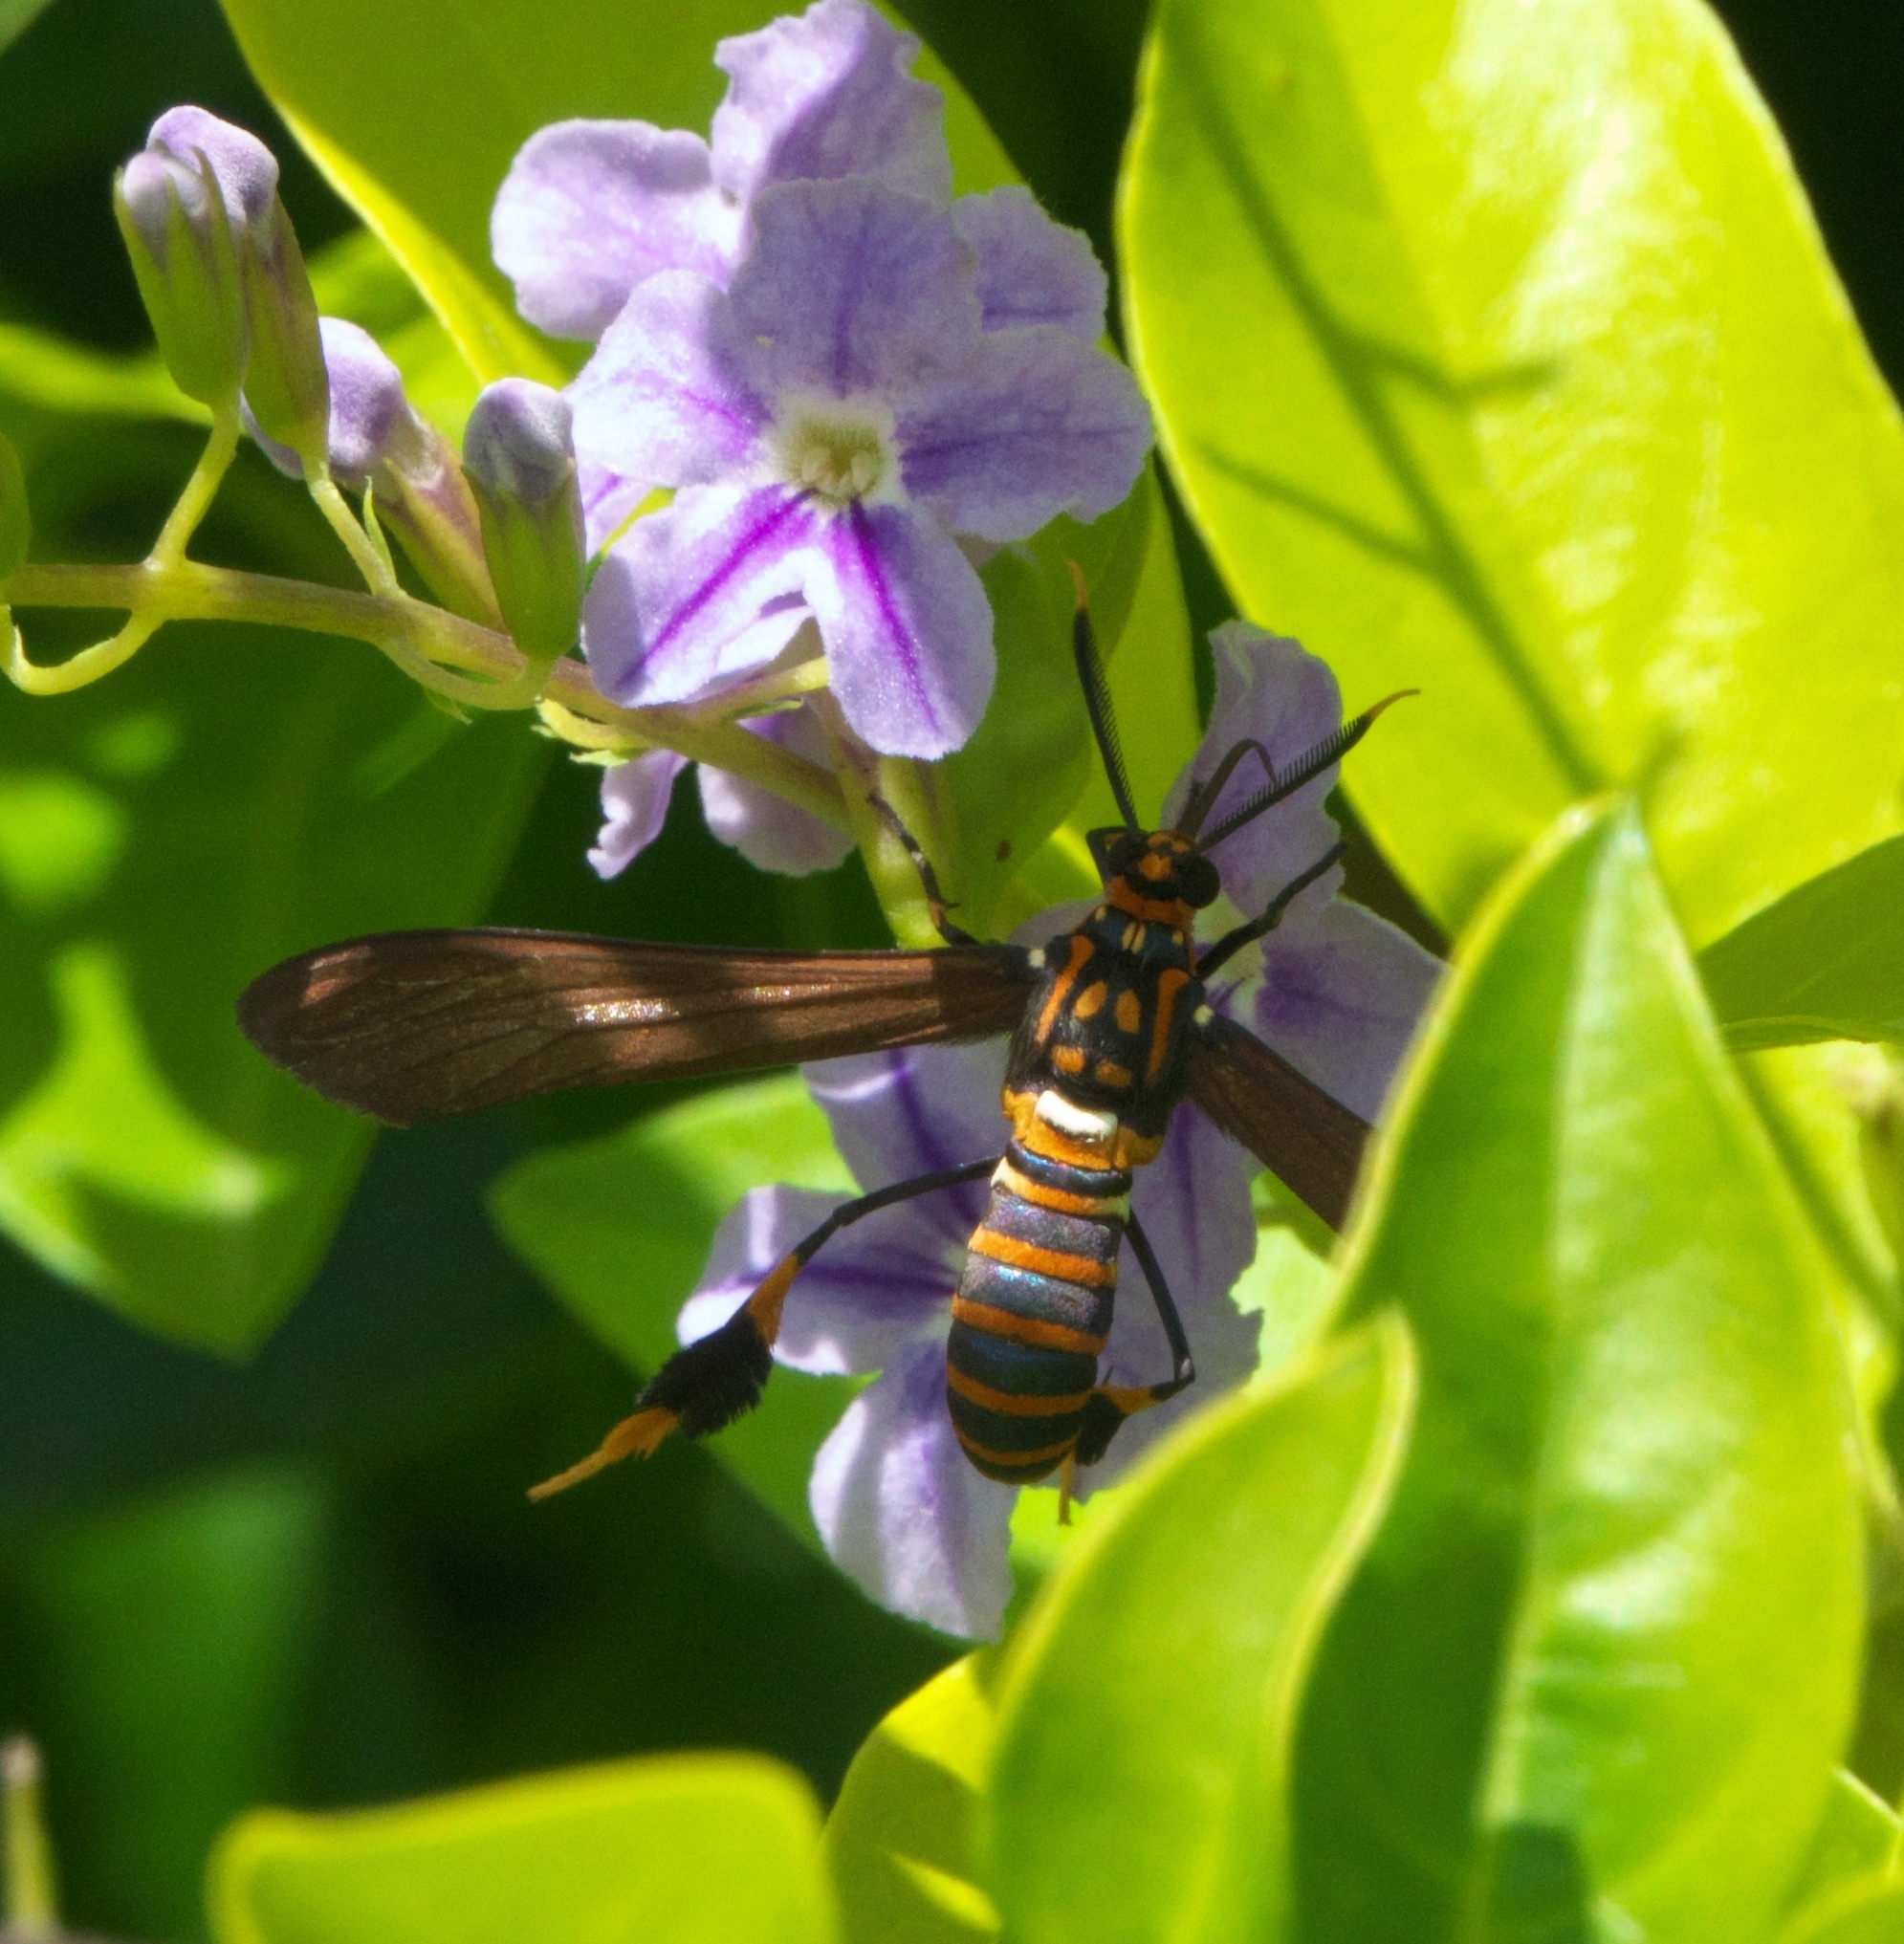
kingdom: Animalia
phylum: Arthropoda
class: Insecta
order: Lepidoptera
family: Erebidae
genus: Horama
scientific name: Horama panthalon
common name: Texas wasp moth
